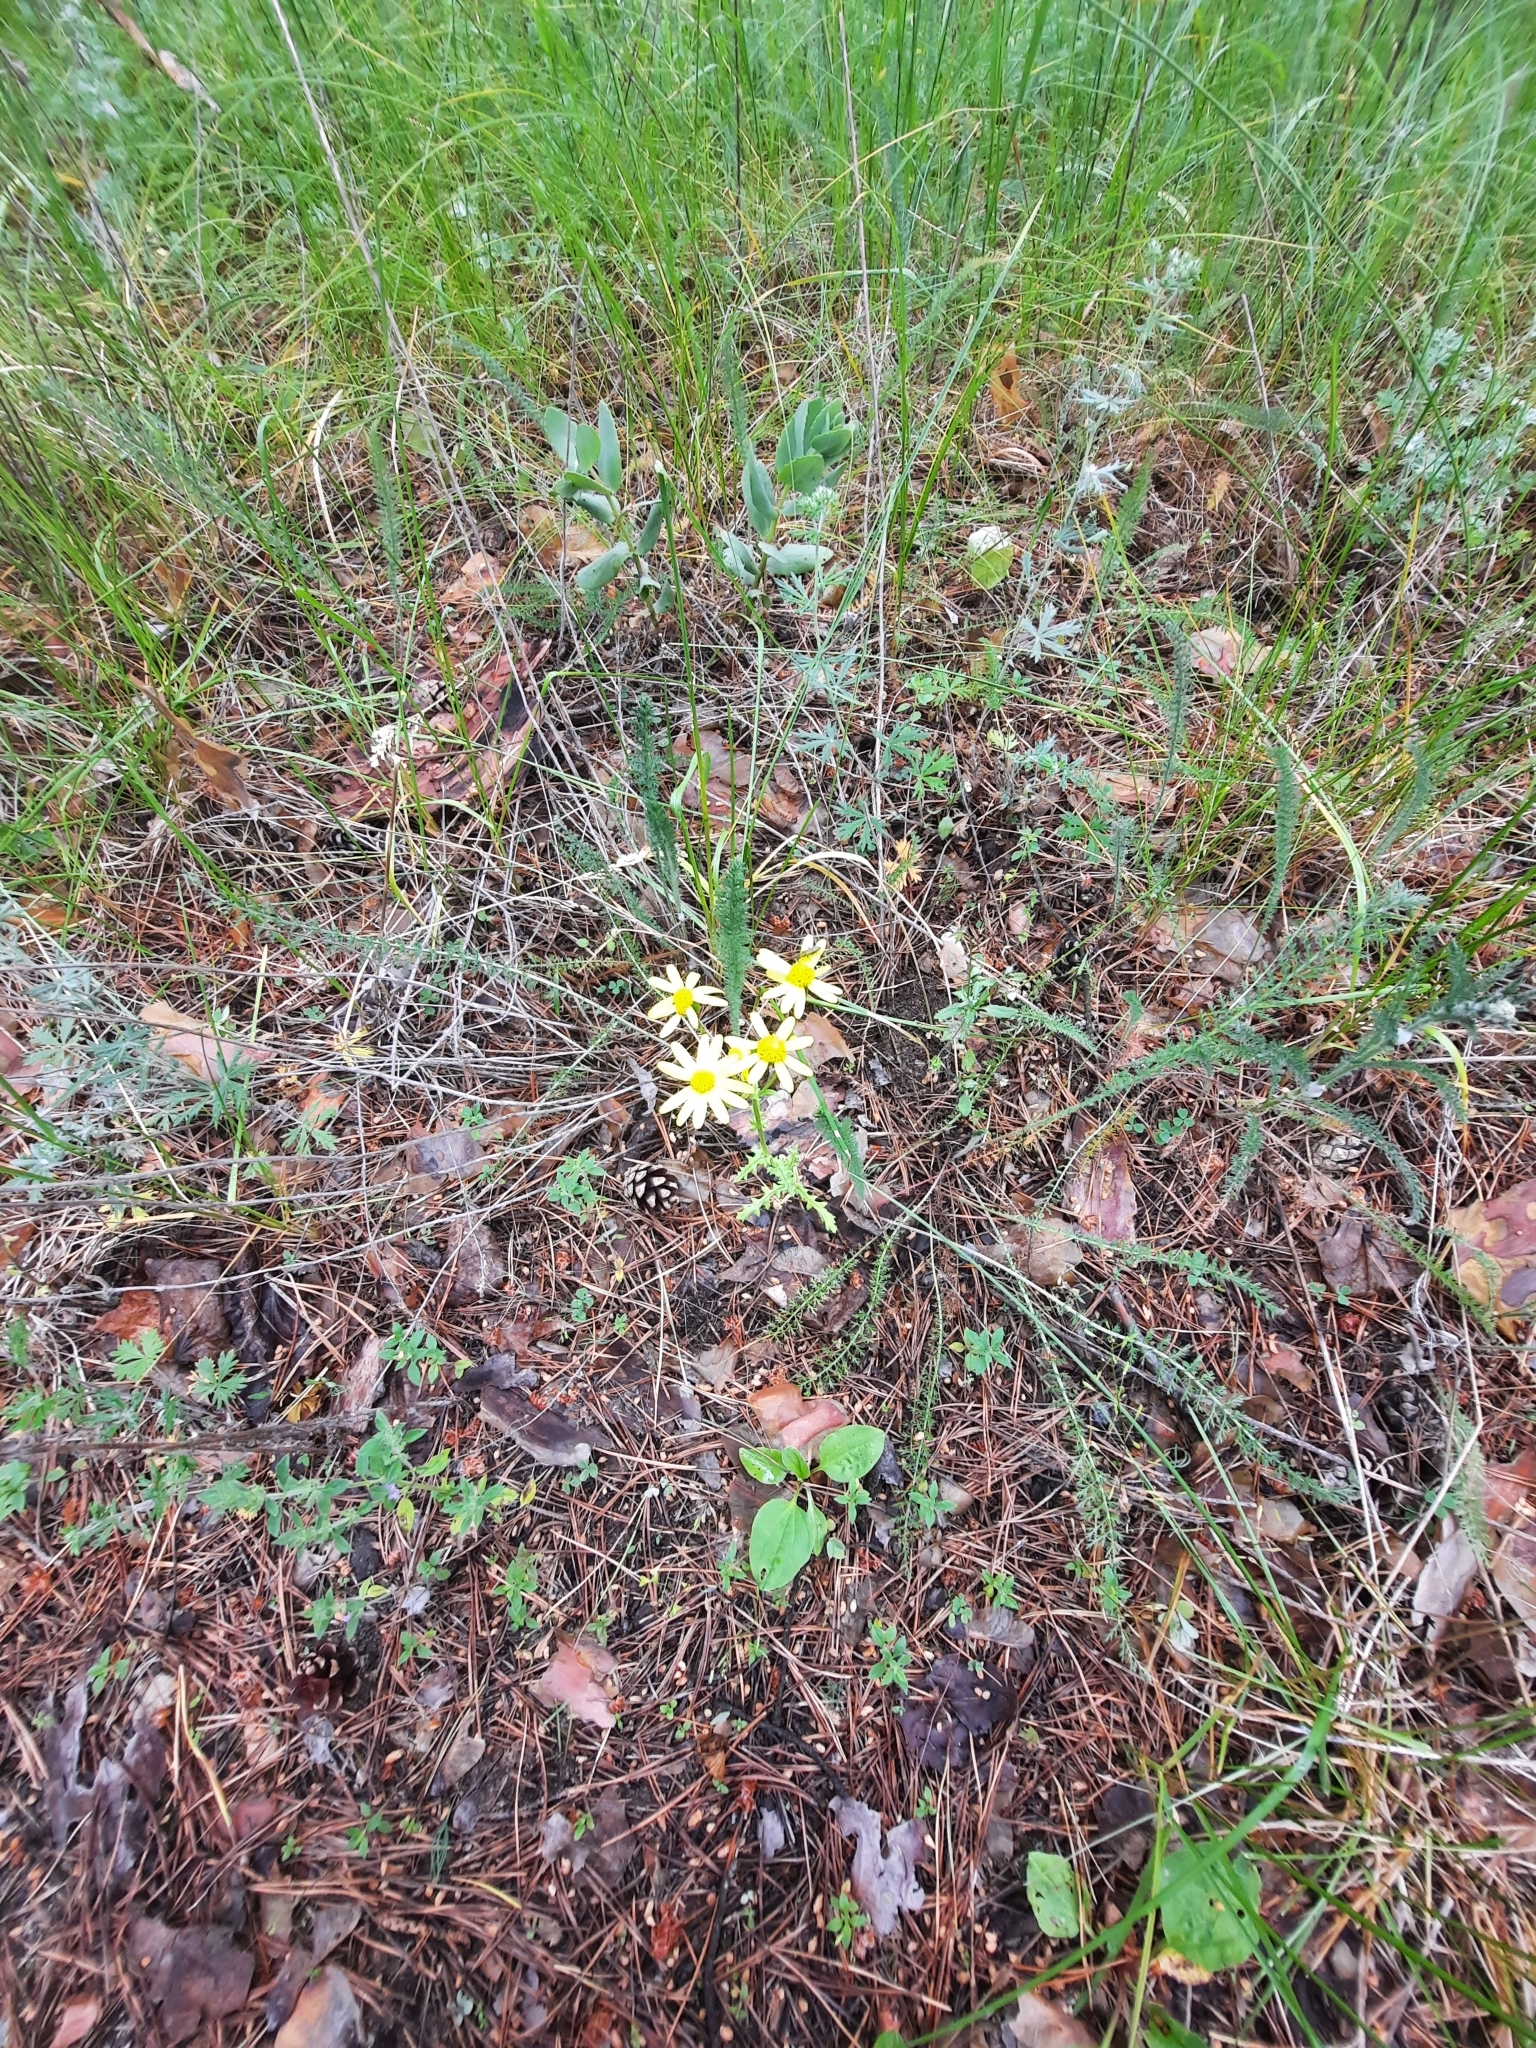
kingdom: Plantae
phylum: Tracheophyta
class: Magnoliopsida
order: Asterales
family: Asteraceae
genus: Senecio
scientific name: Senecio vernalis
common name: Eastern groundsel
